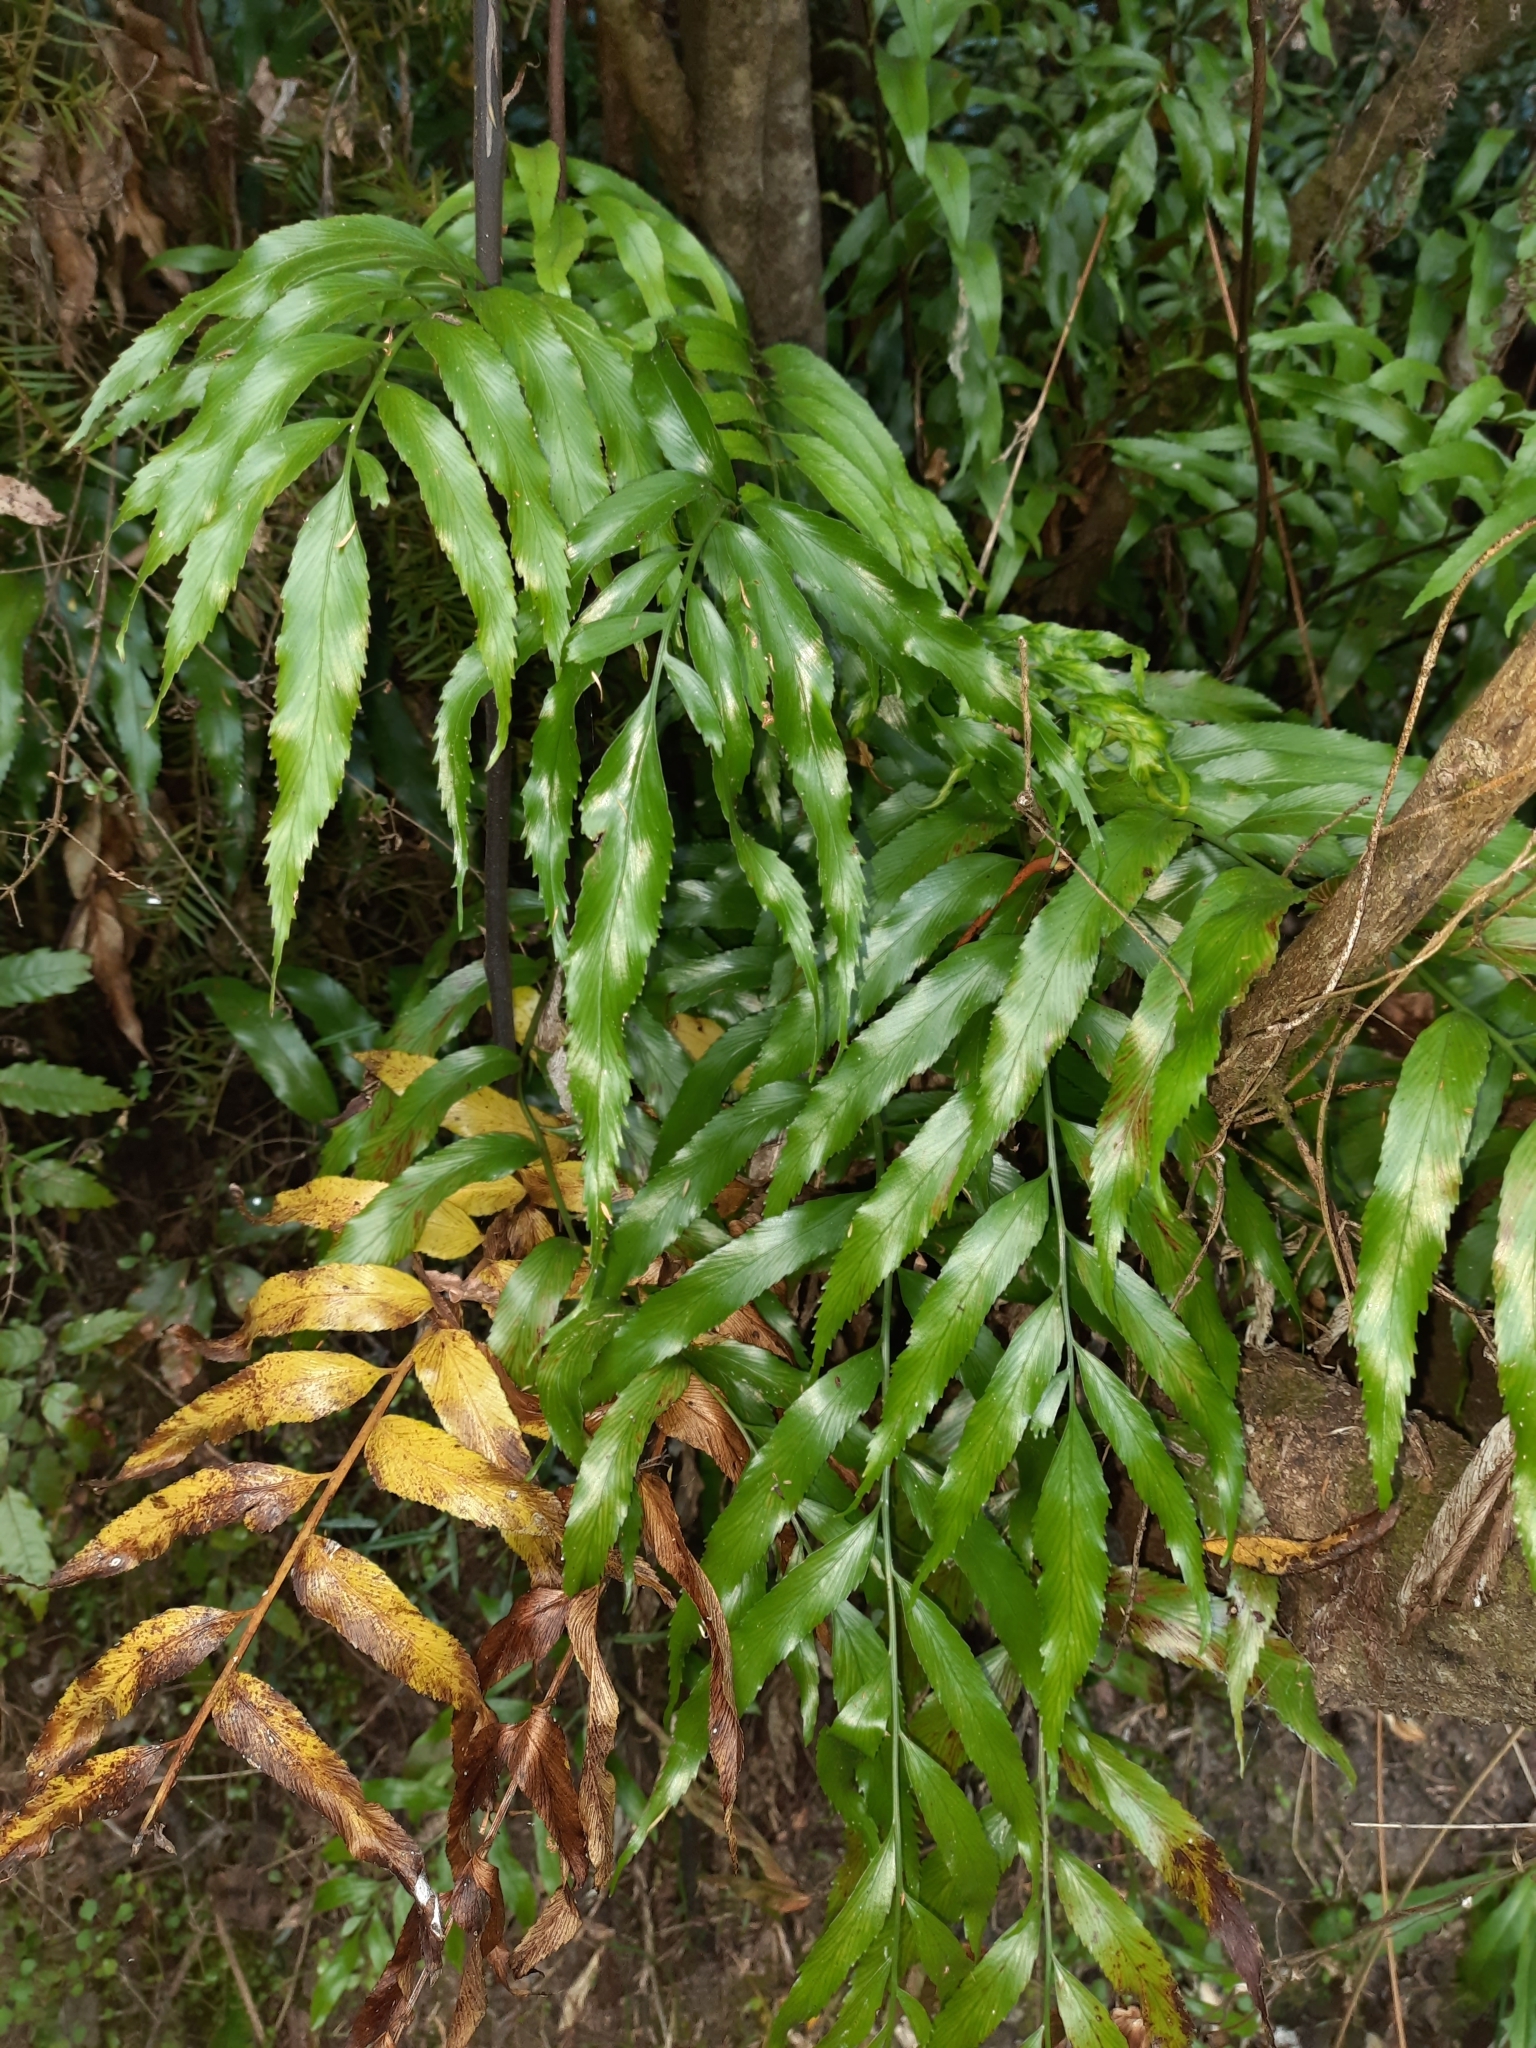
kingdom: Plantae
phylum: Tracheophyta
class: Polypodiopsida
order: Polypodiales
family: Aspleniaceae
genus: Asplenium
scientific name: Asplenium oblongifolium
